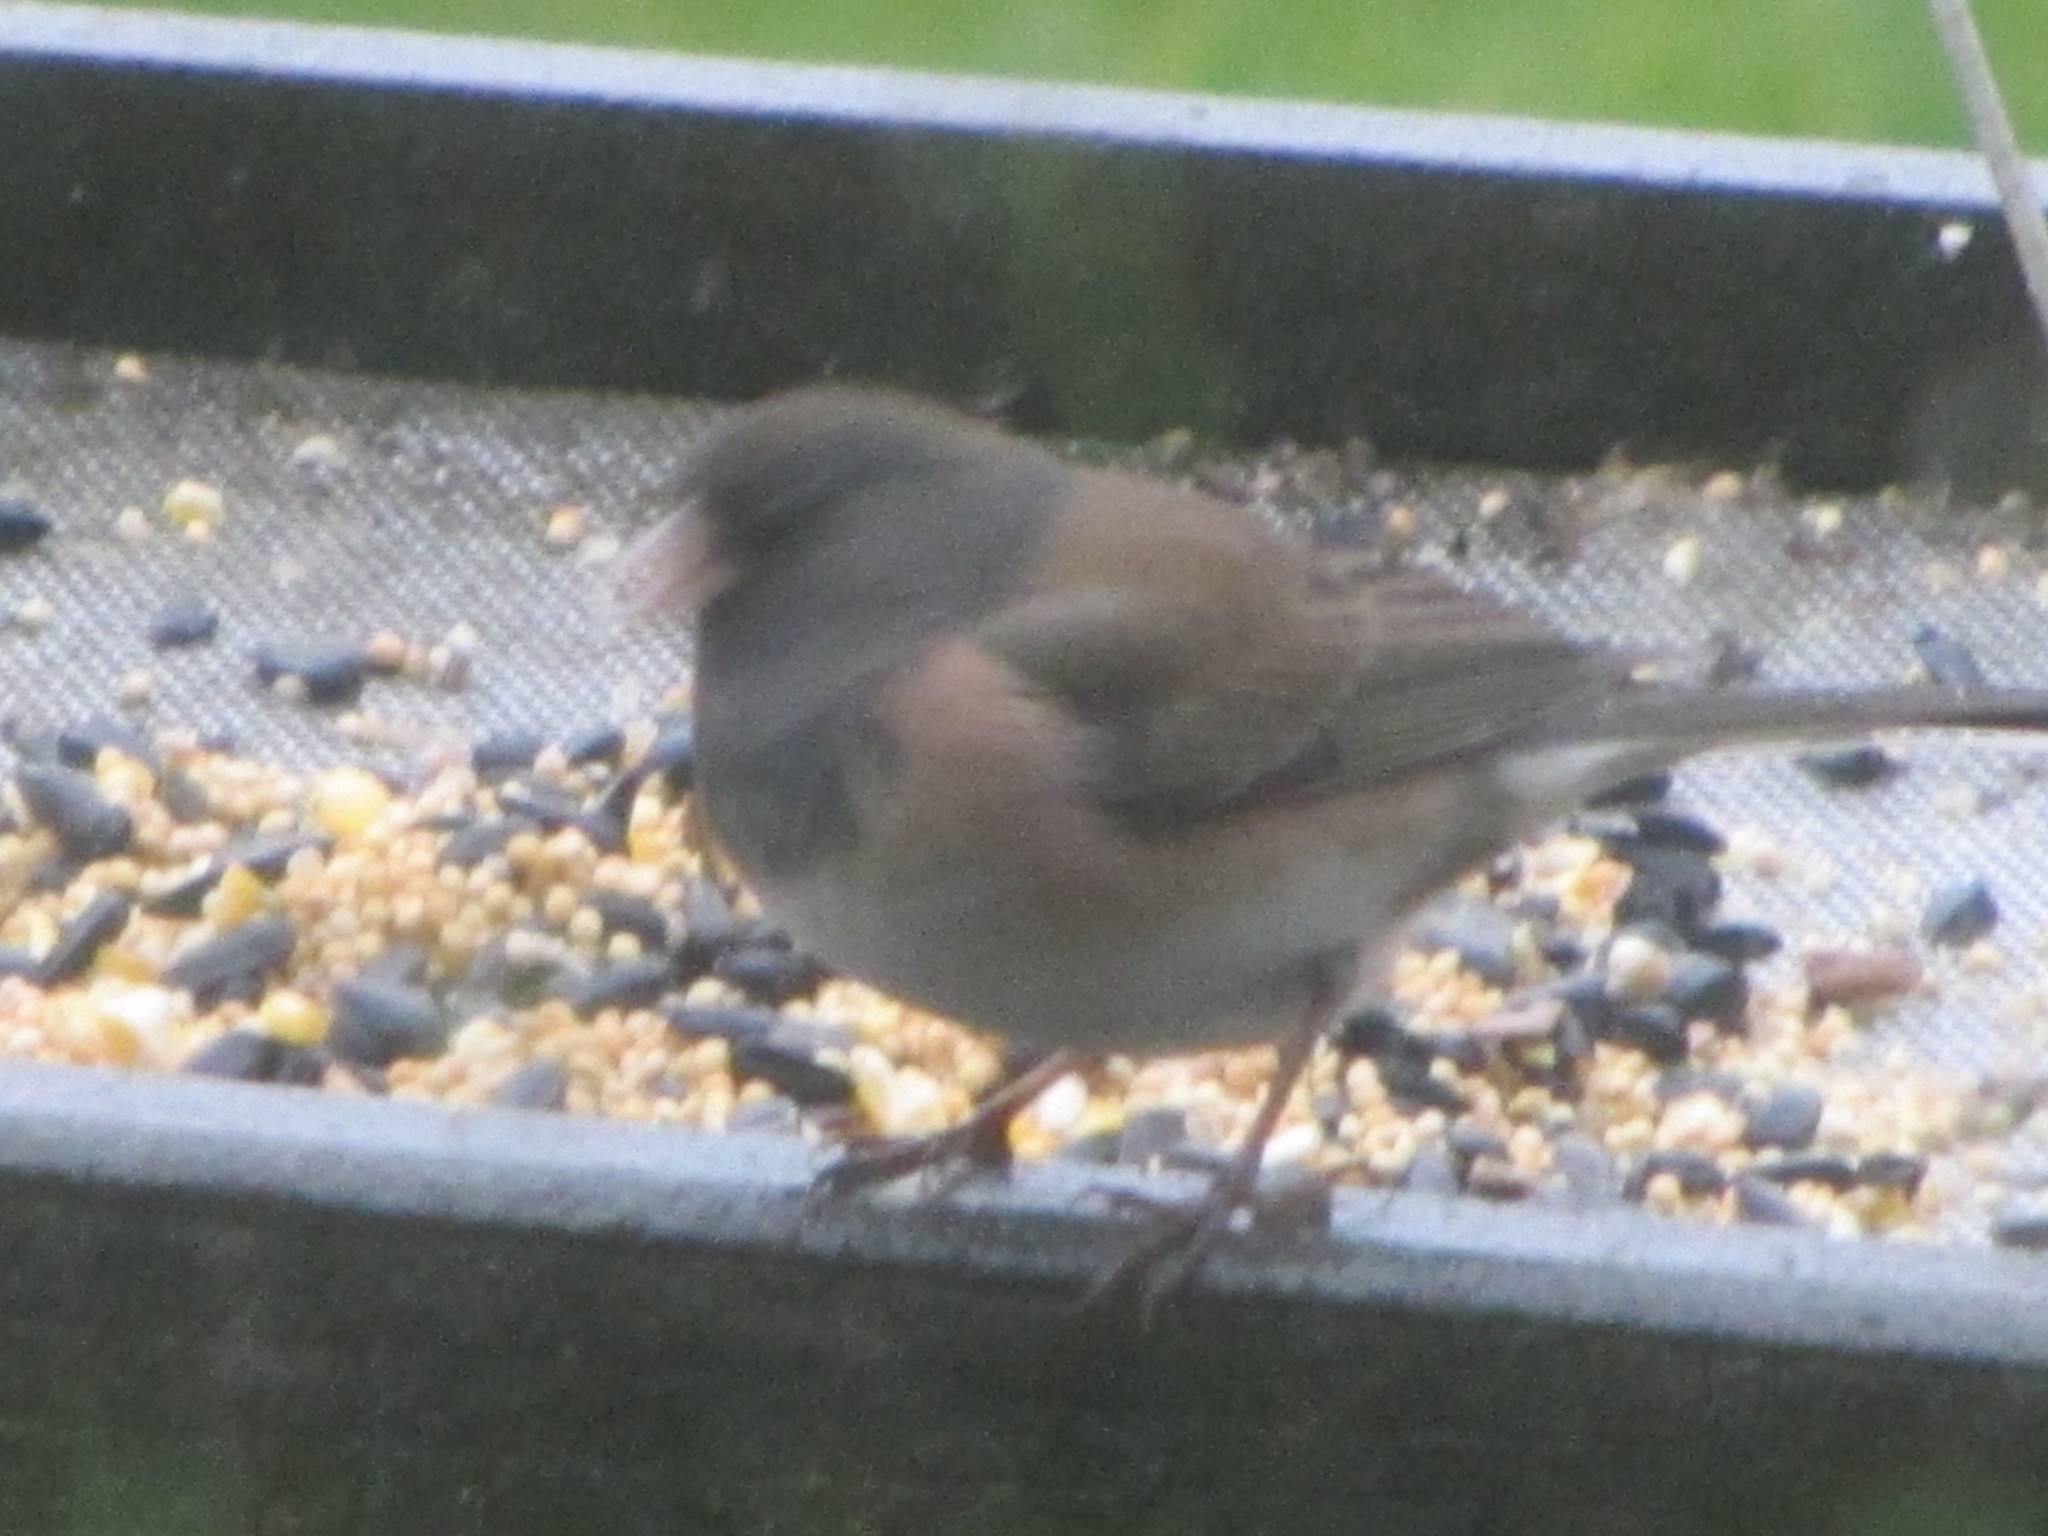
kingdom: Animalia
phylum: Chordata
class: Aves
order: Passeriformes
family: Passerellidae
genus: Junco
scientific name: Junco hyemalis
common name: Dark-eyed junco
